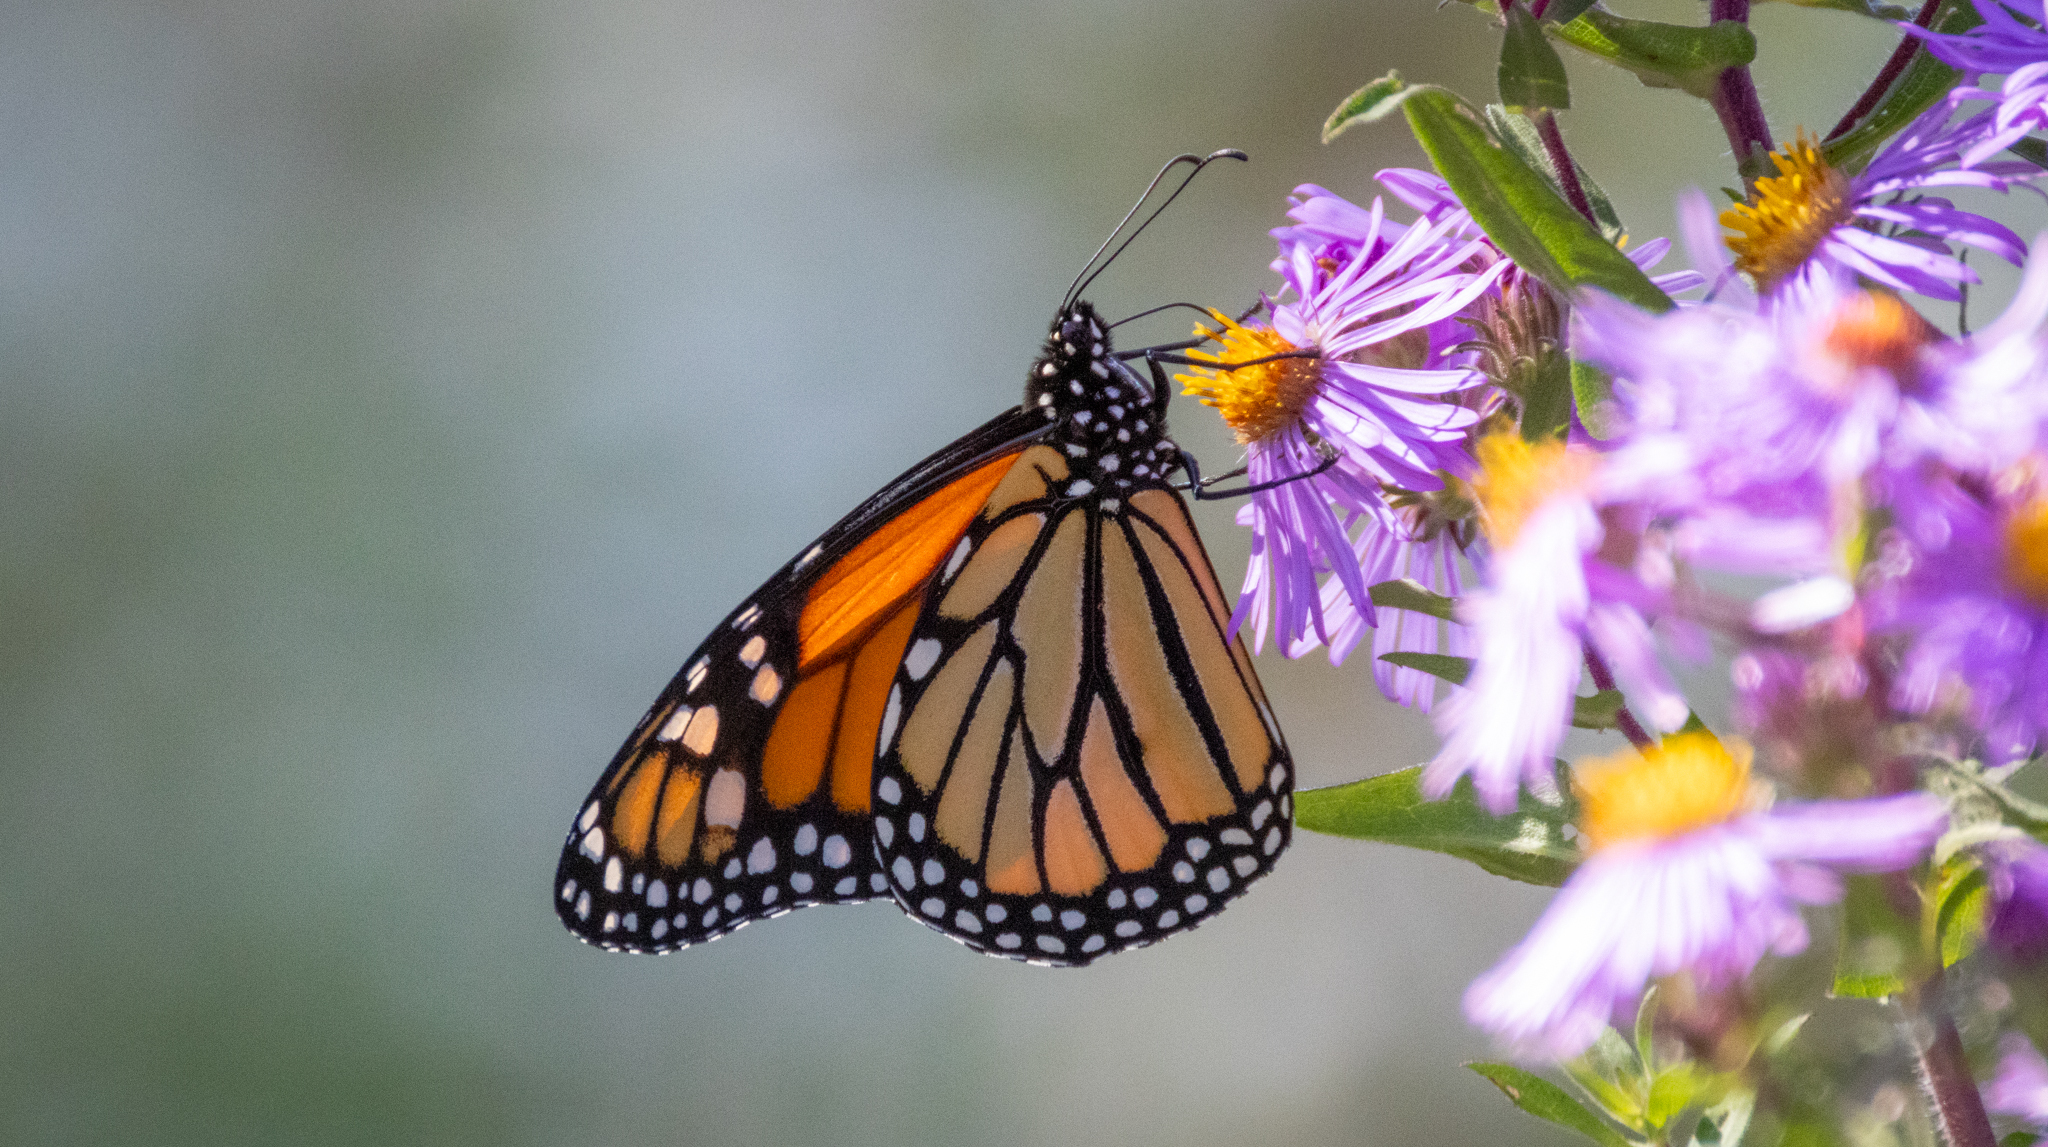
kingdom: Animalia
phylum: Arthropoda
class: Insecta
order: Lepidoptera
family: Nymphalidae
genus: Danaus
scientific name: Danaus plexippus
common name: Monarch
